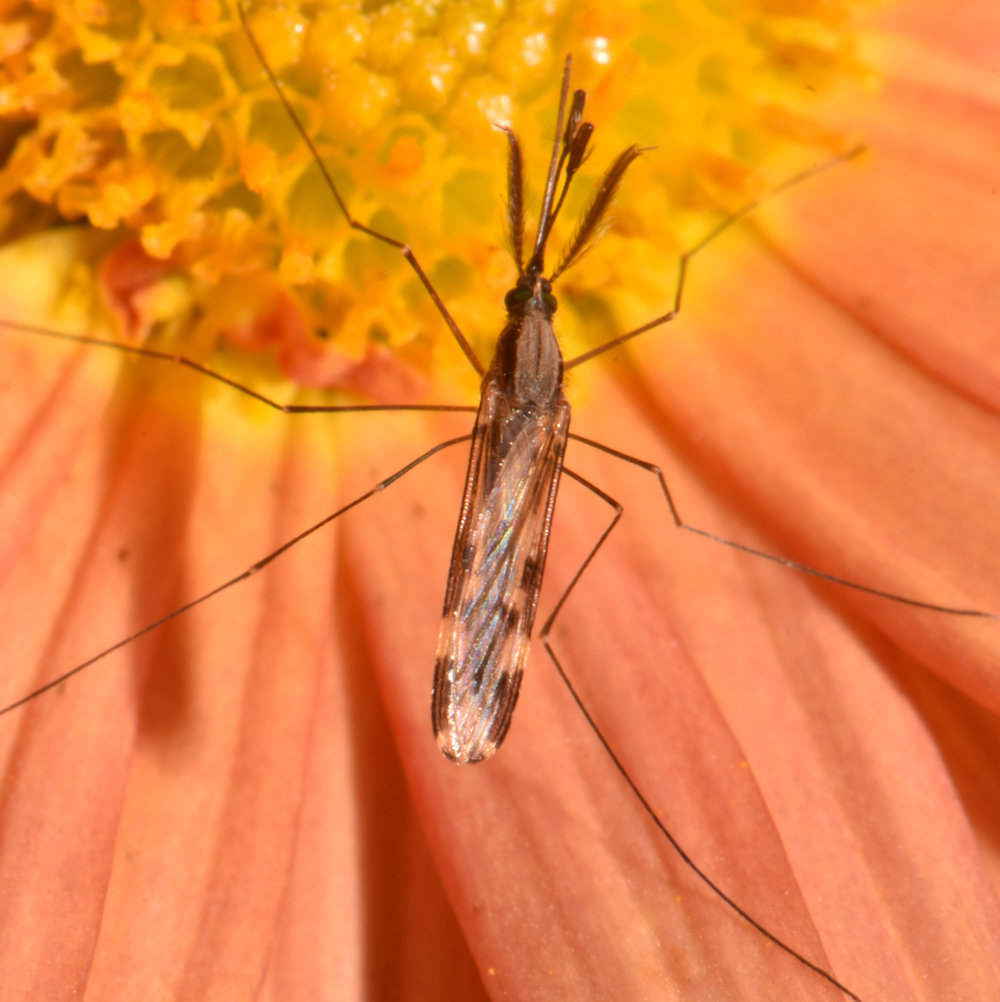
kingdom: Animalia
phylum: Arthropoda
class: Insecta
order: Diptera
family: Culicidae
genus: Anopheles
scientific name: Anopheles punctipennis
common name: Woodland malaria mosquito
